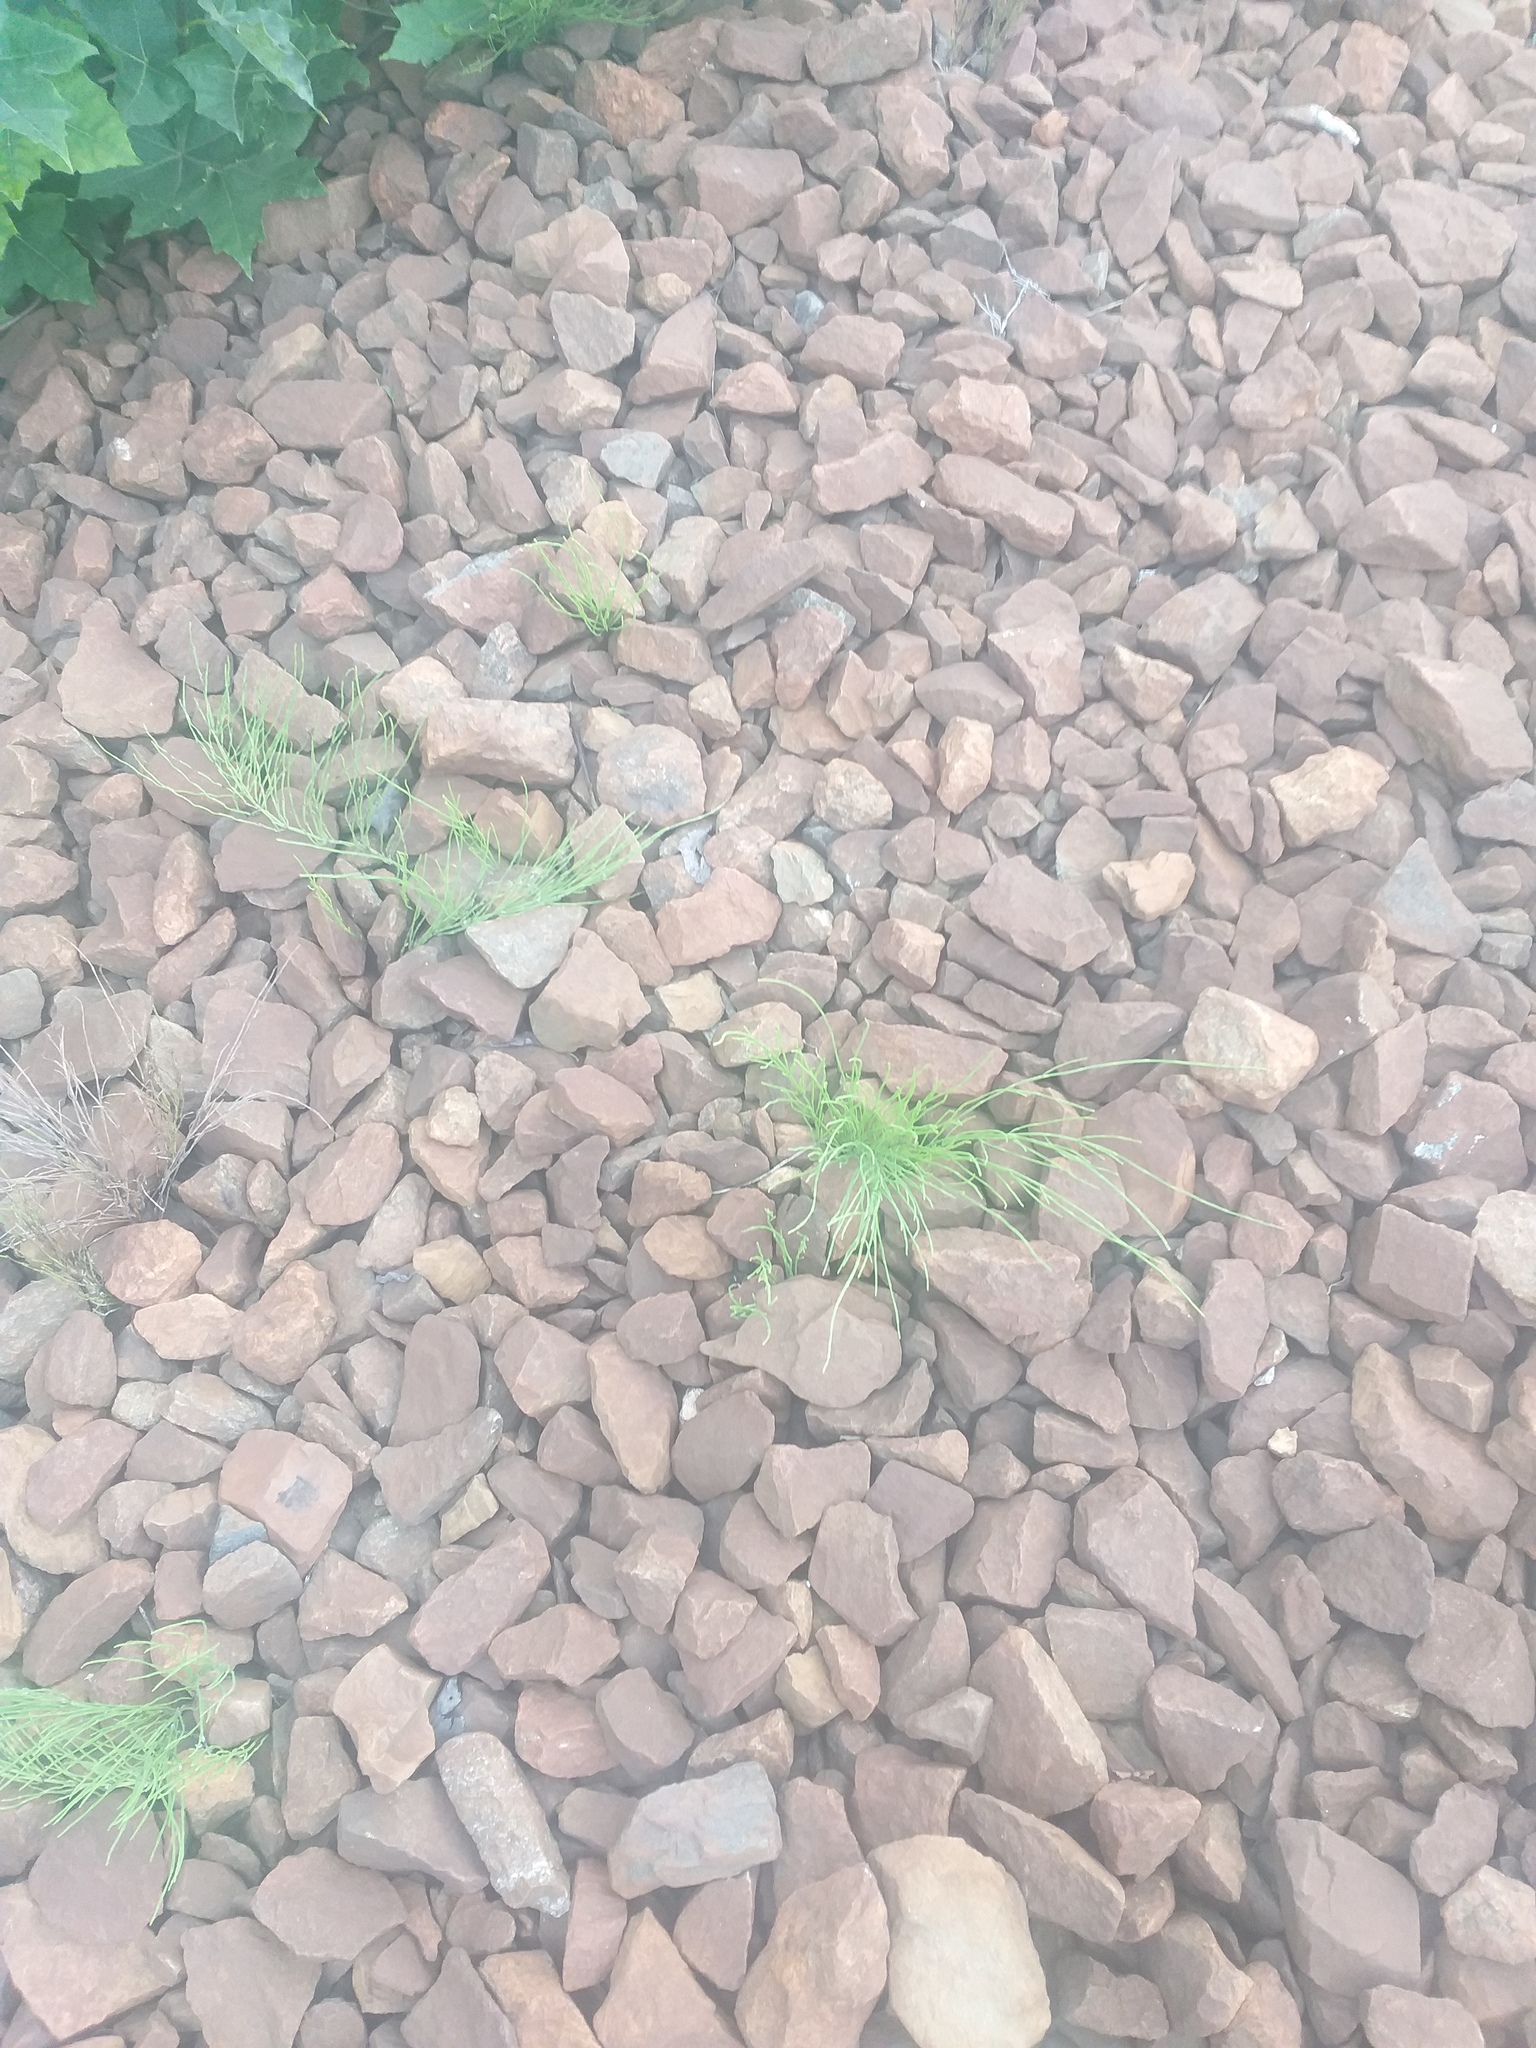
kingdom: Plantae
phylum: Tracheophyta
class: Polypodiopsida
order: Equisetales
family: Equisetaceae
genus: Equisetum
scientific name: Equisetum arvense
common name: Field horsetail
